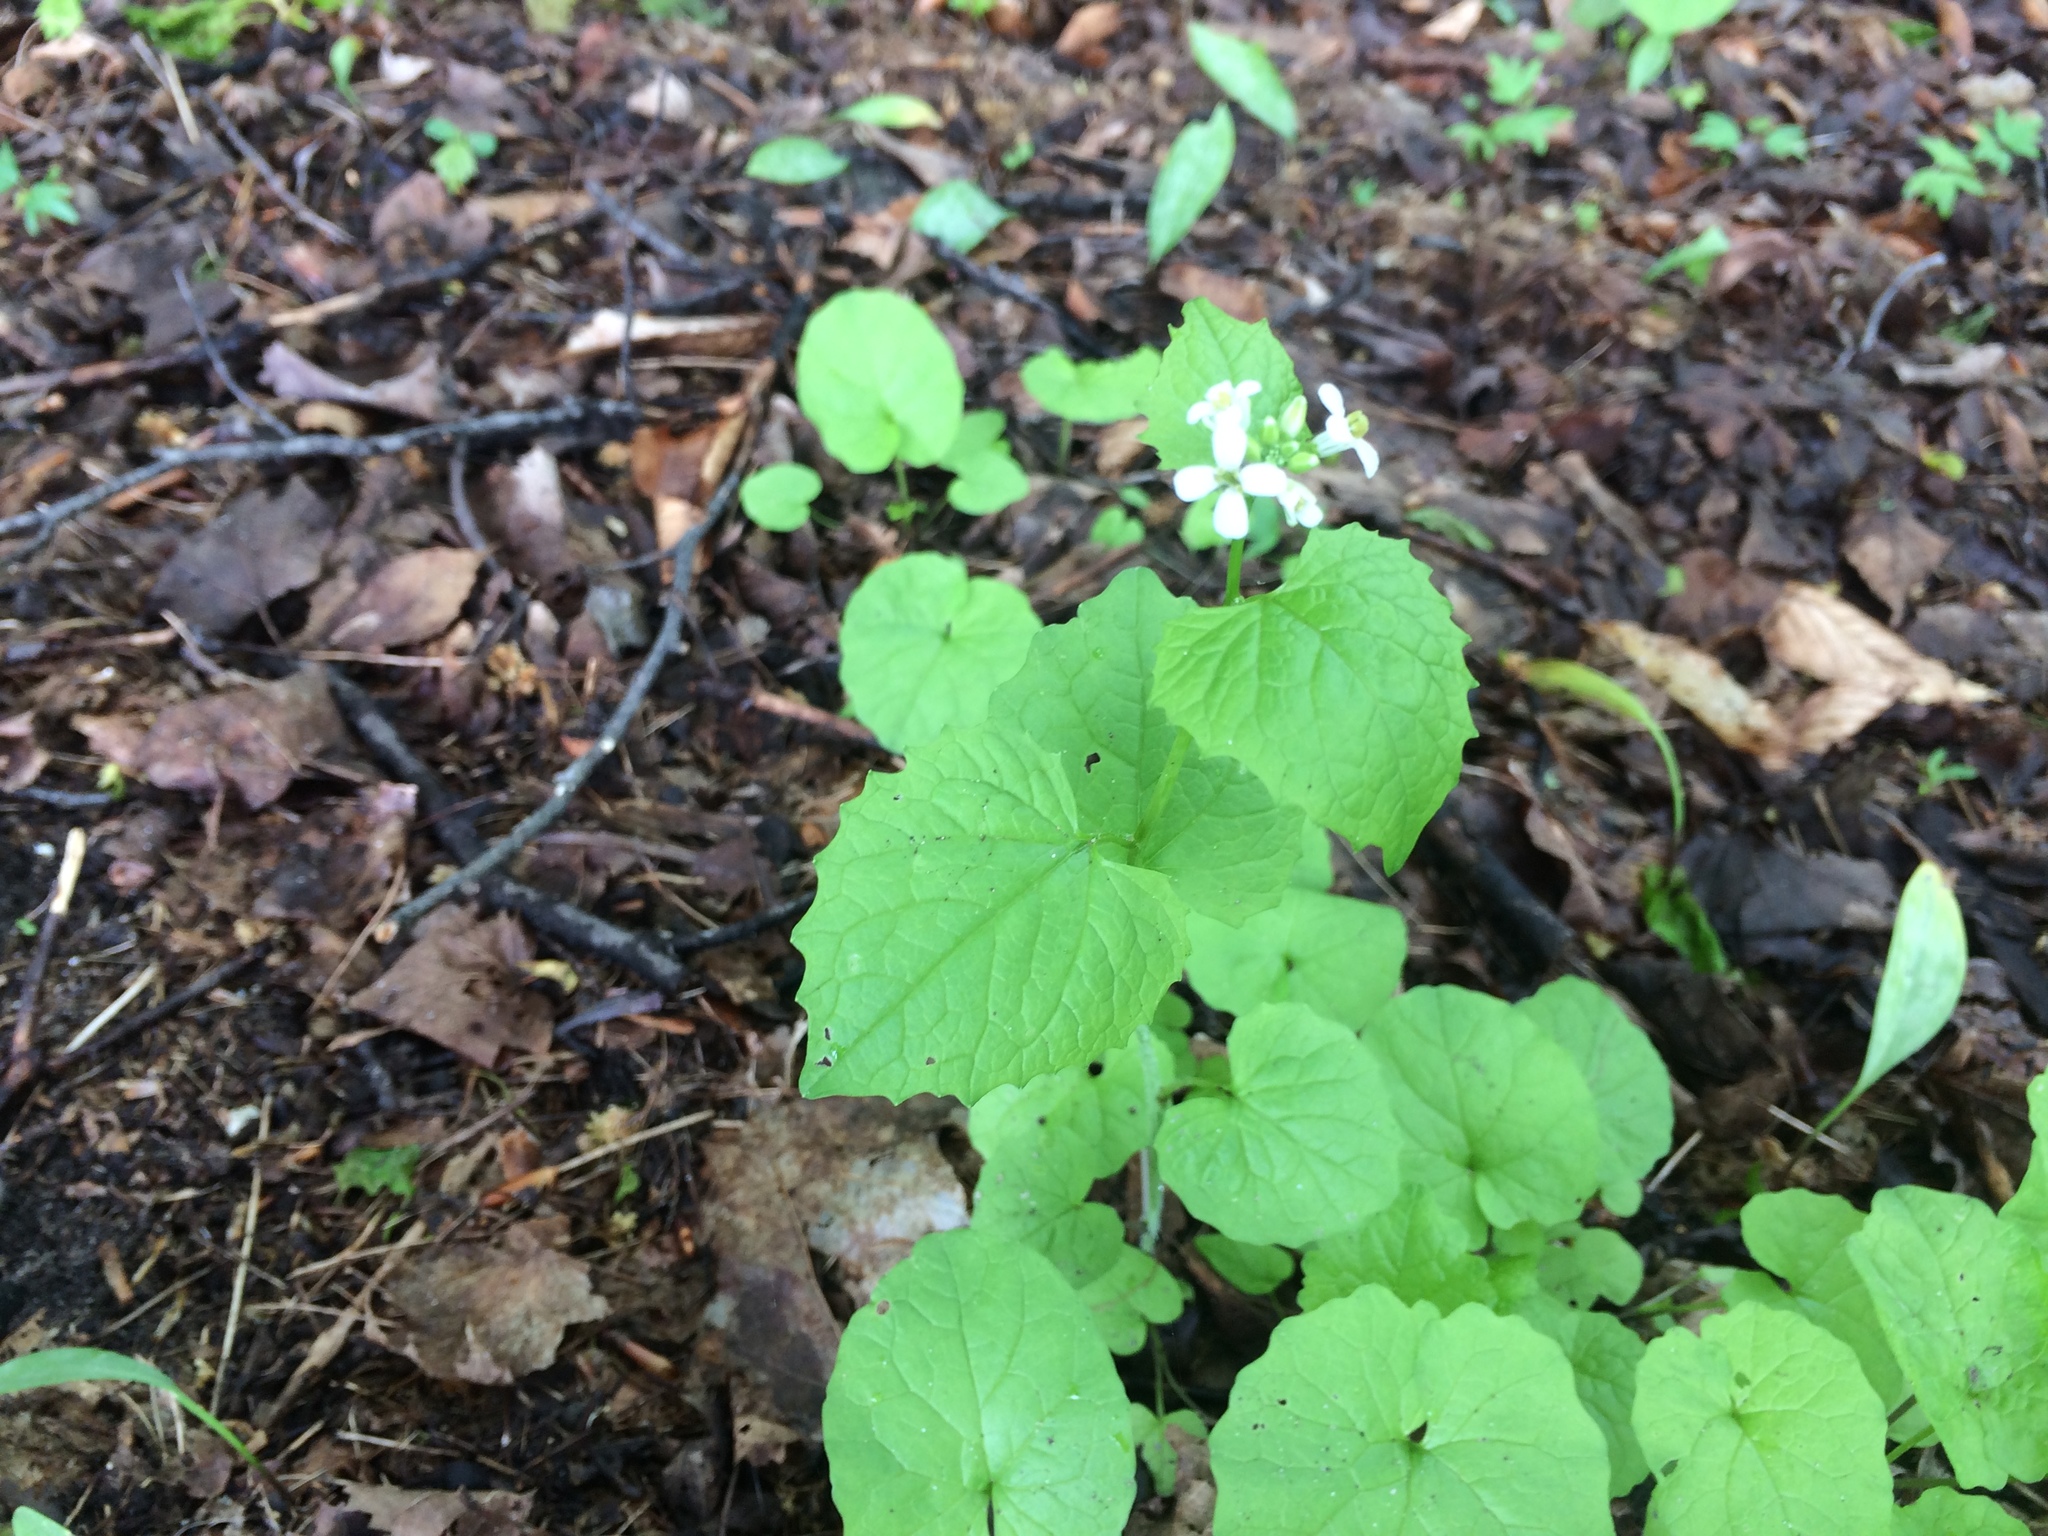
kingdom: Plantae
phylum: Tracheophyta
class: Magnoliopsida
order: Brassicales
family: Brassicaceae
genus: Alliaria
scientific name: Alliaria petiolata
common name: Garlic mustard
